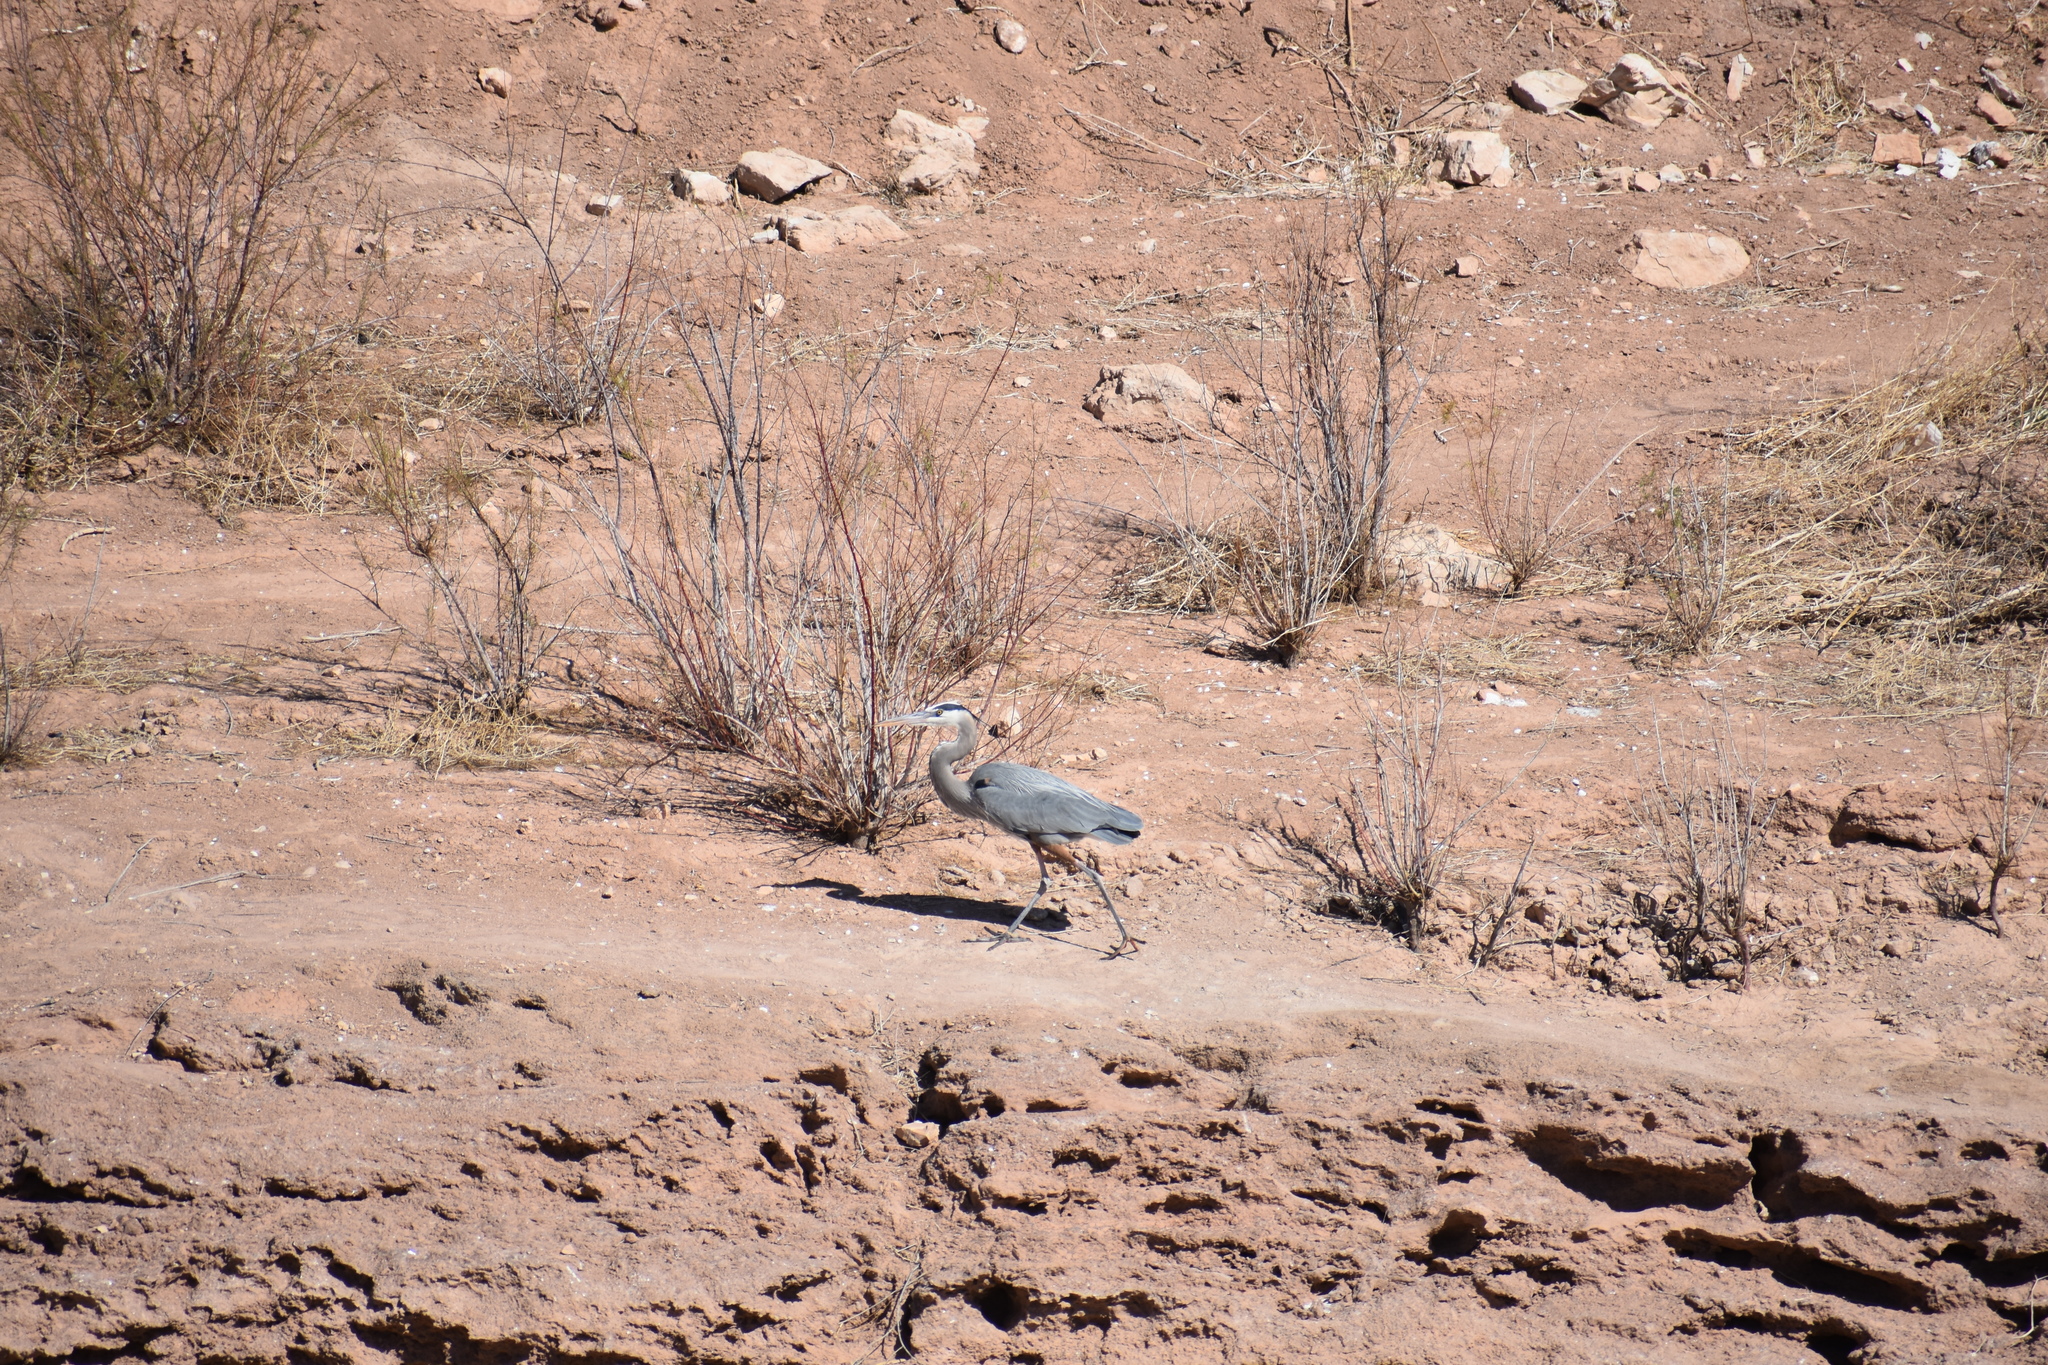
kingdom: Animalia
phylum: Chordata
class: Aves
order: Pelecaniformes
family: Ardeidae
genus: Ardea
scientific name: Ardea herodias
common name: Great blue heron
